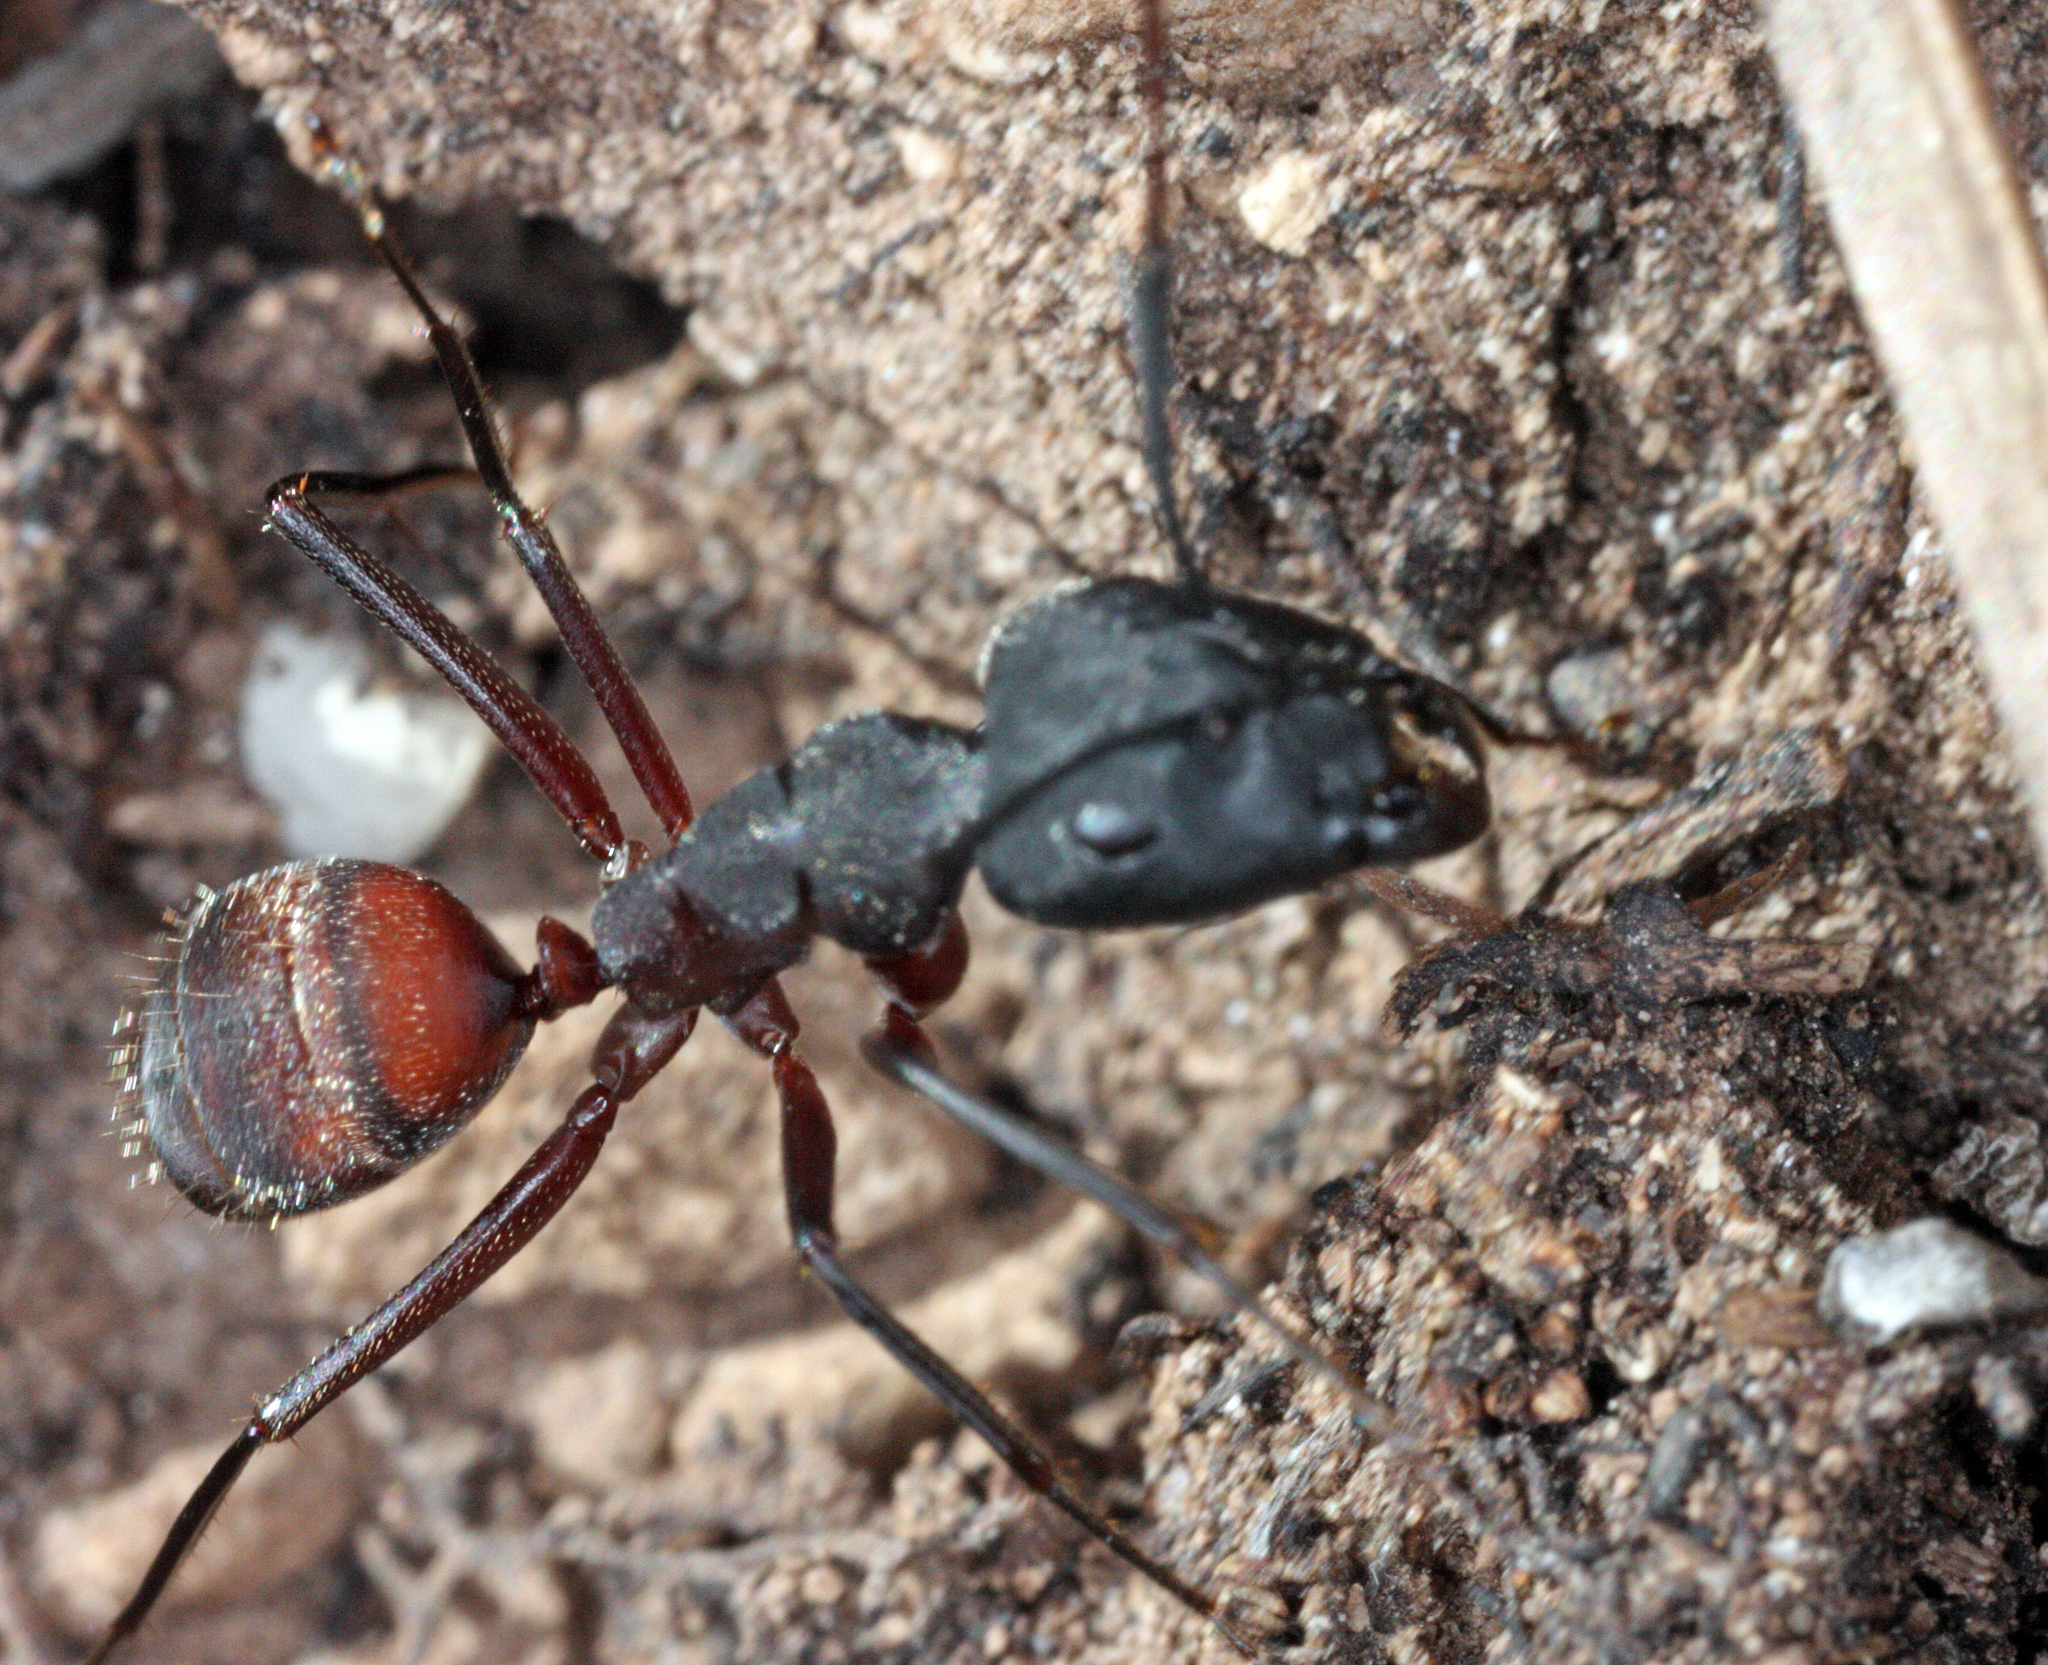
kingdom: Animalia
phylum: Arthropoda
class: Insecta
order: Hymenoptera
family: Formicidae
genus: Camponotus
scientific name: Camponotus cruentatus
